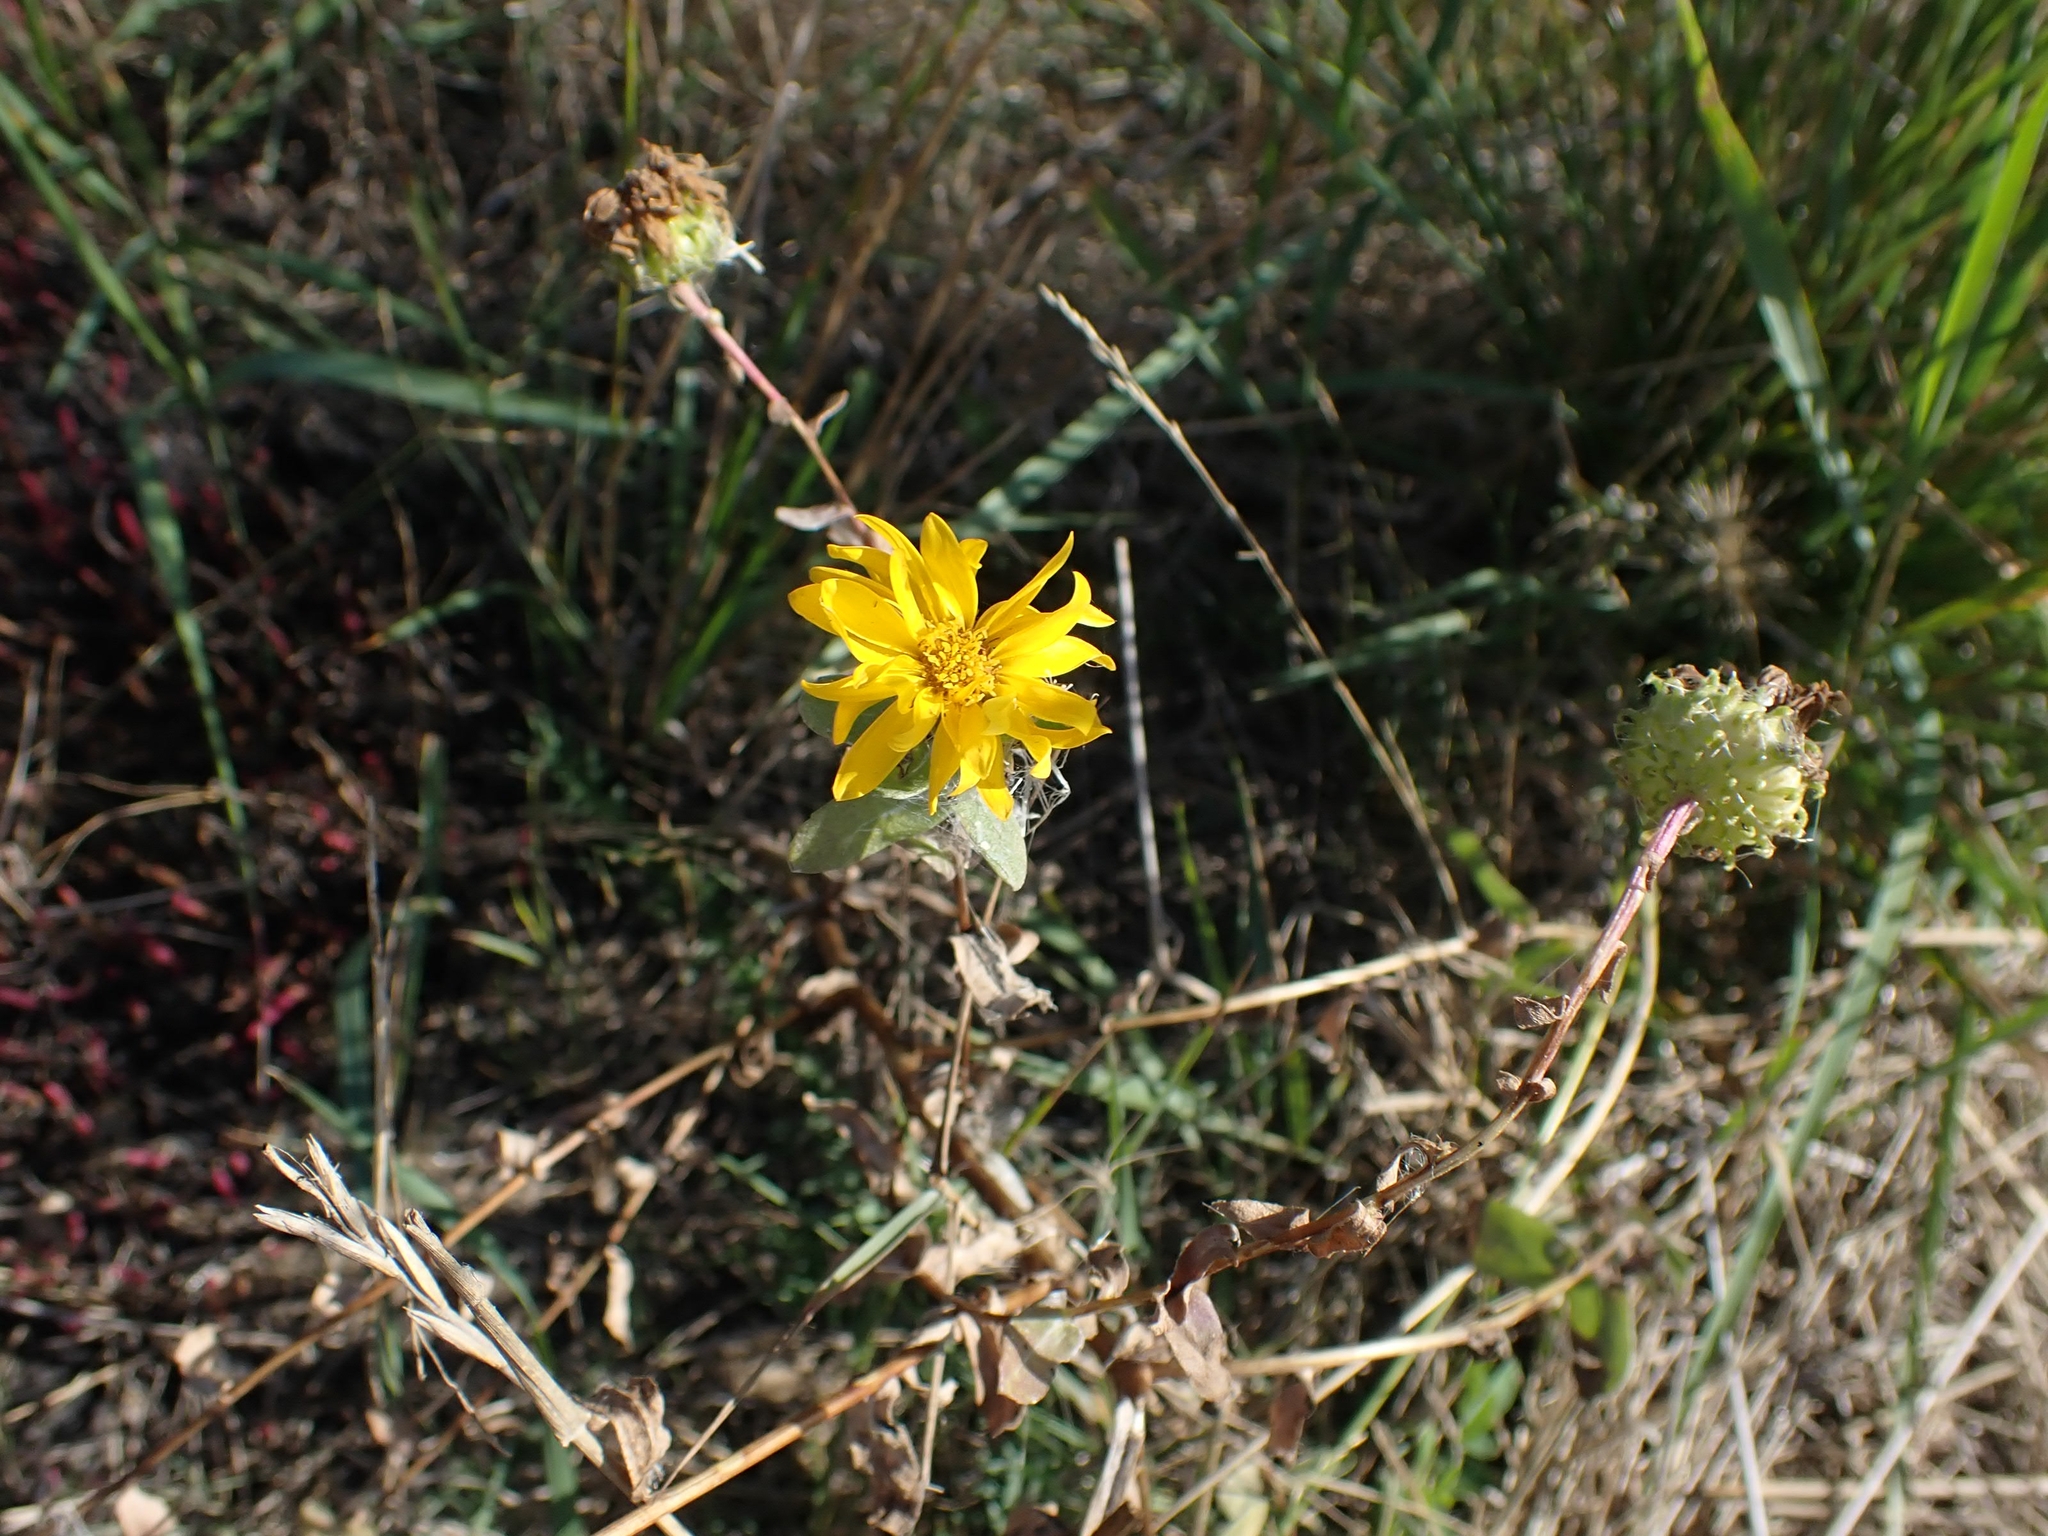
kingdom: Plantae
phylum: Tracheophyta
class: Magnoliopsida
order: Asterales
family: Asteraceae
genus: Grindelia
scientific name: Grindelia squarrosa
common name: Curly-cup gumweed
